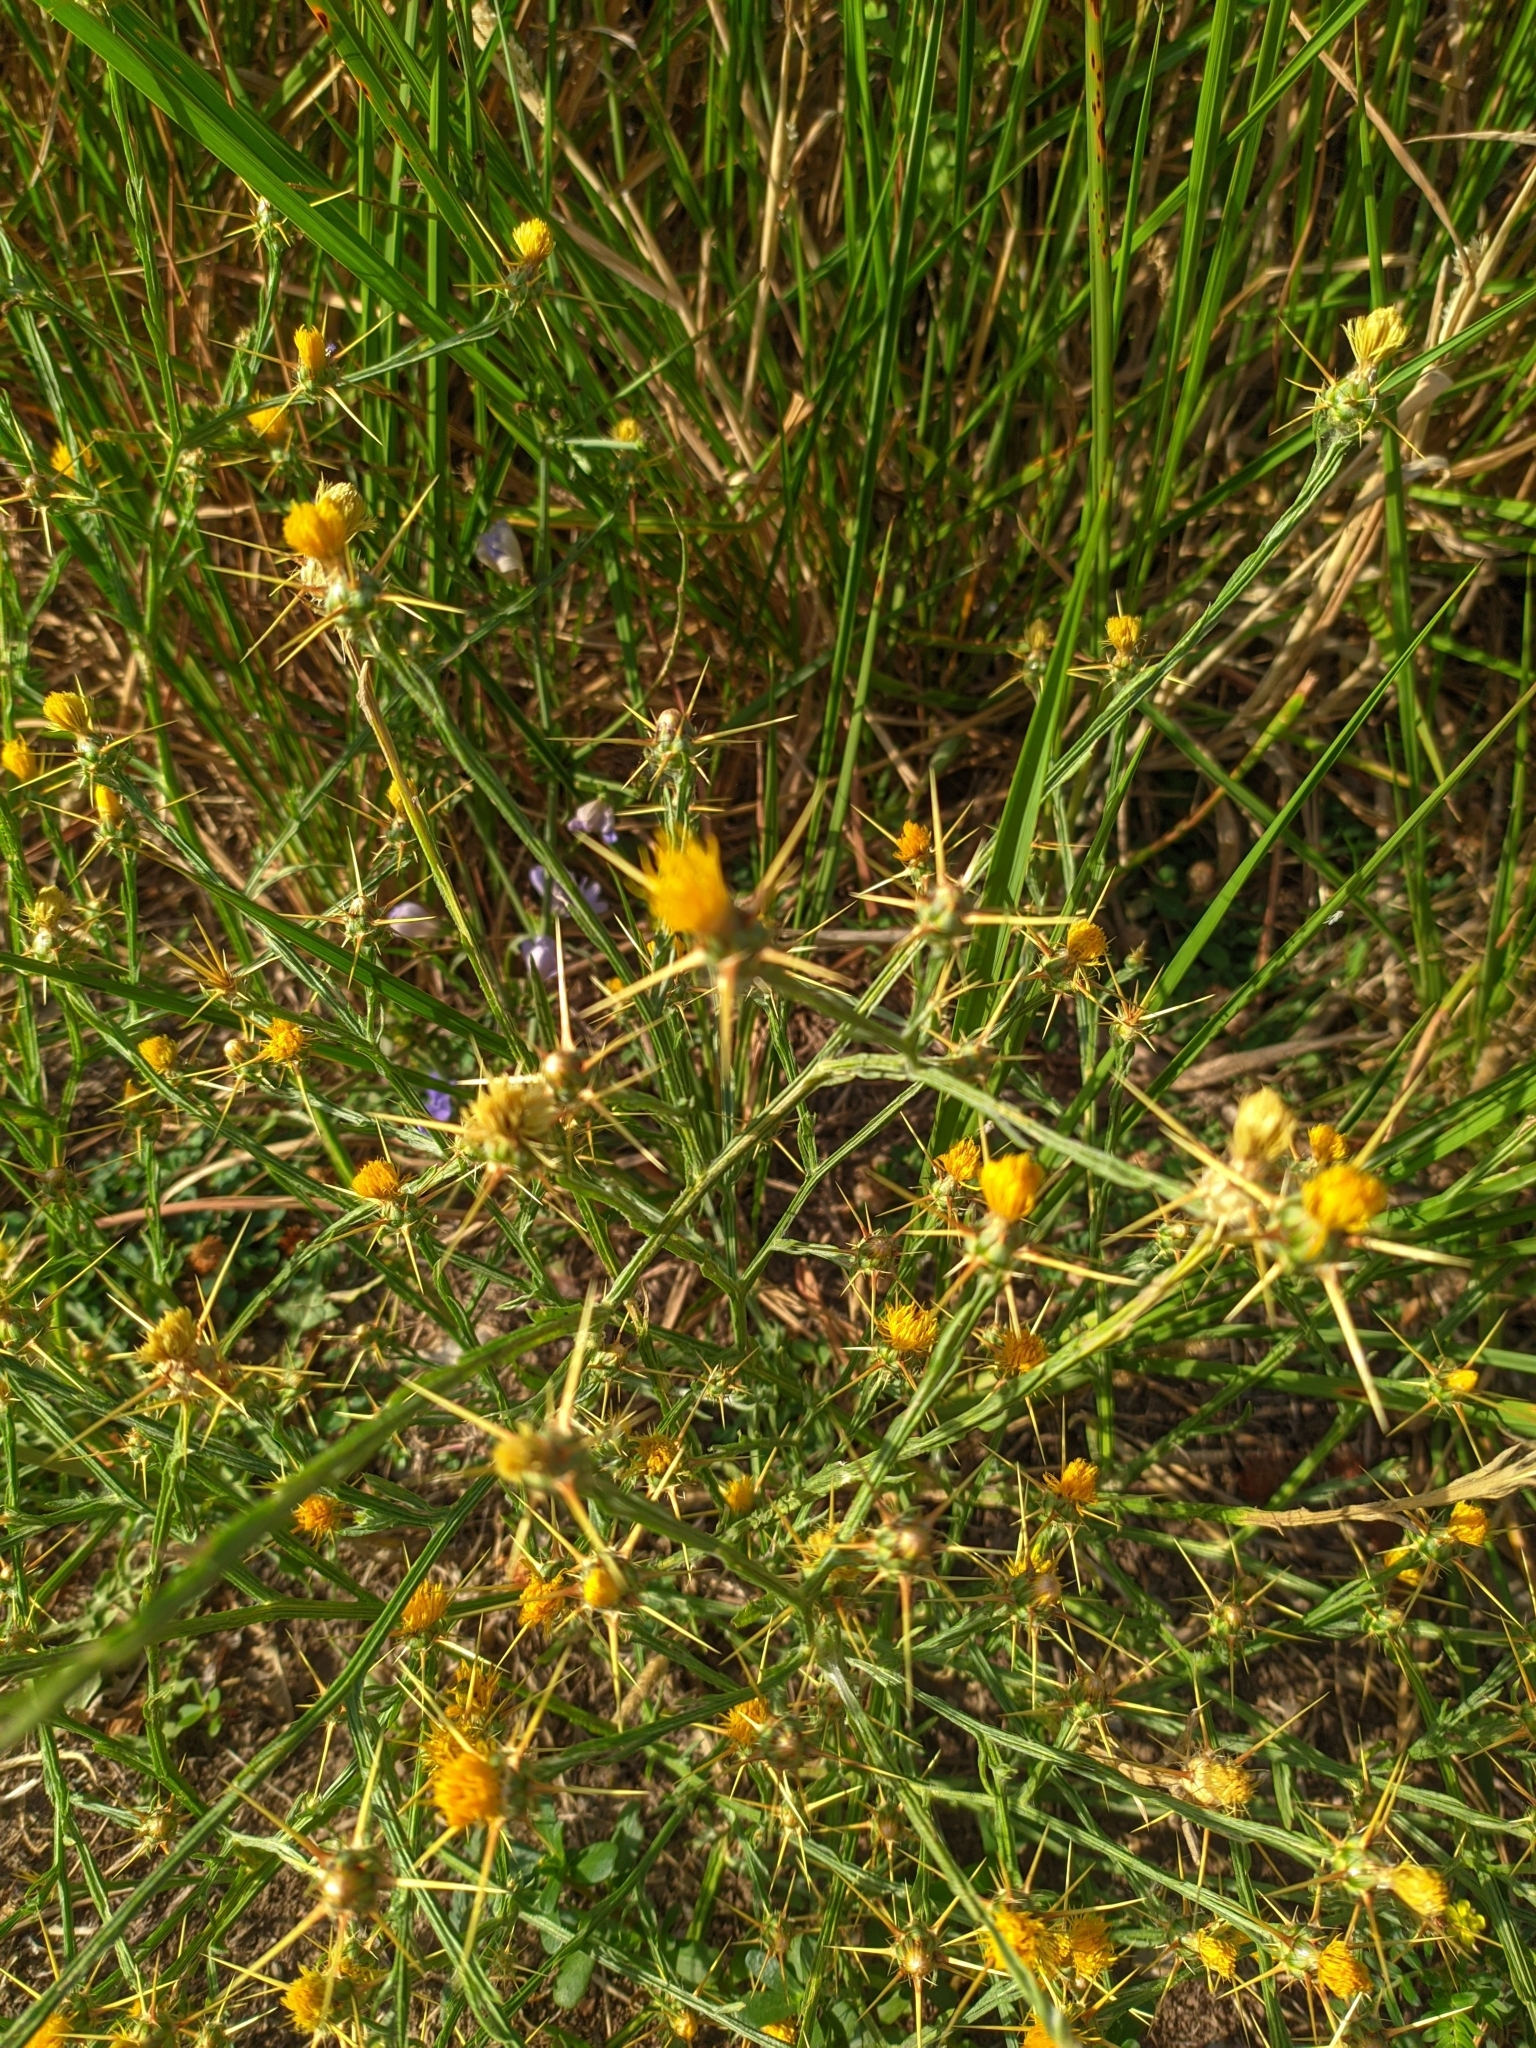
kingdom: Plantae
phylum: Tracheophyta
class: Magnoliopsida
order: Asterales
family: Asteraceae
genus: Centaurea
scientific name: Centaurea solstitialis
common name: Yellow star-thistle
